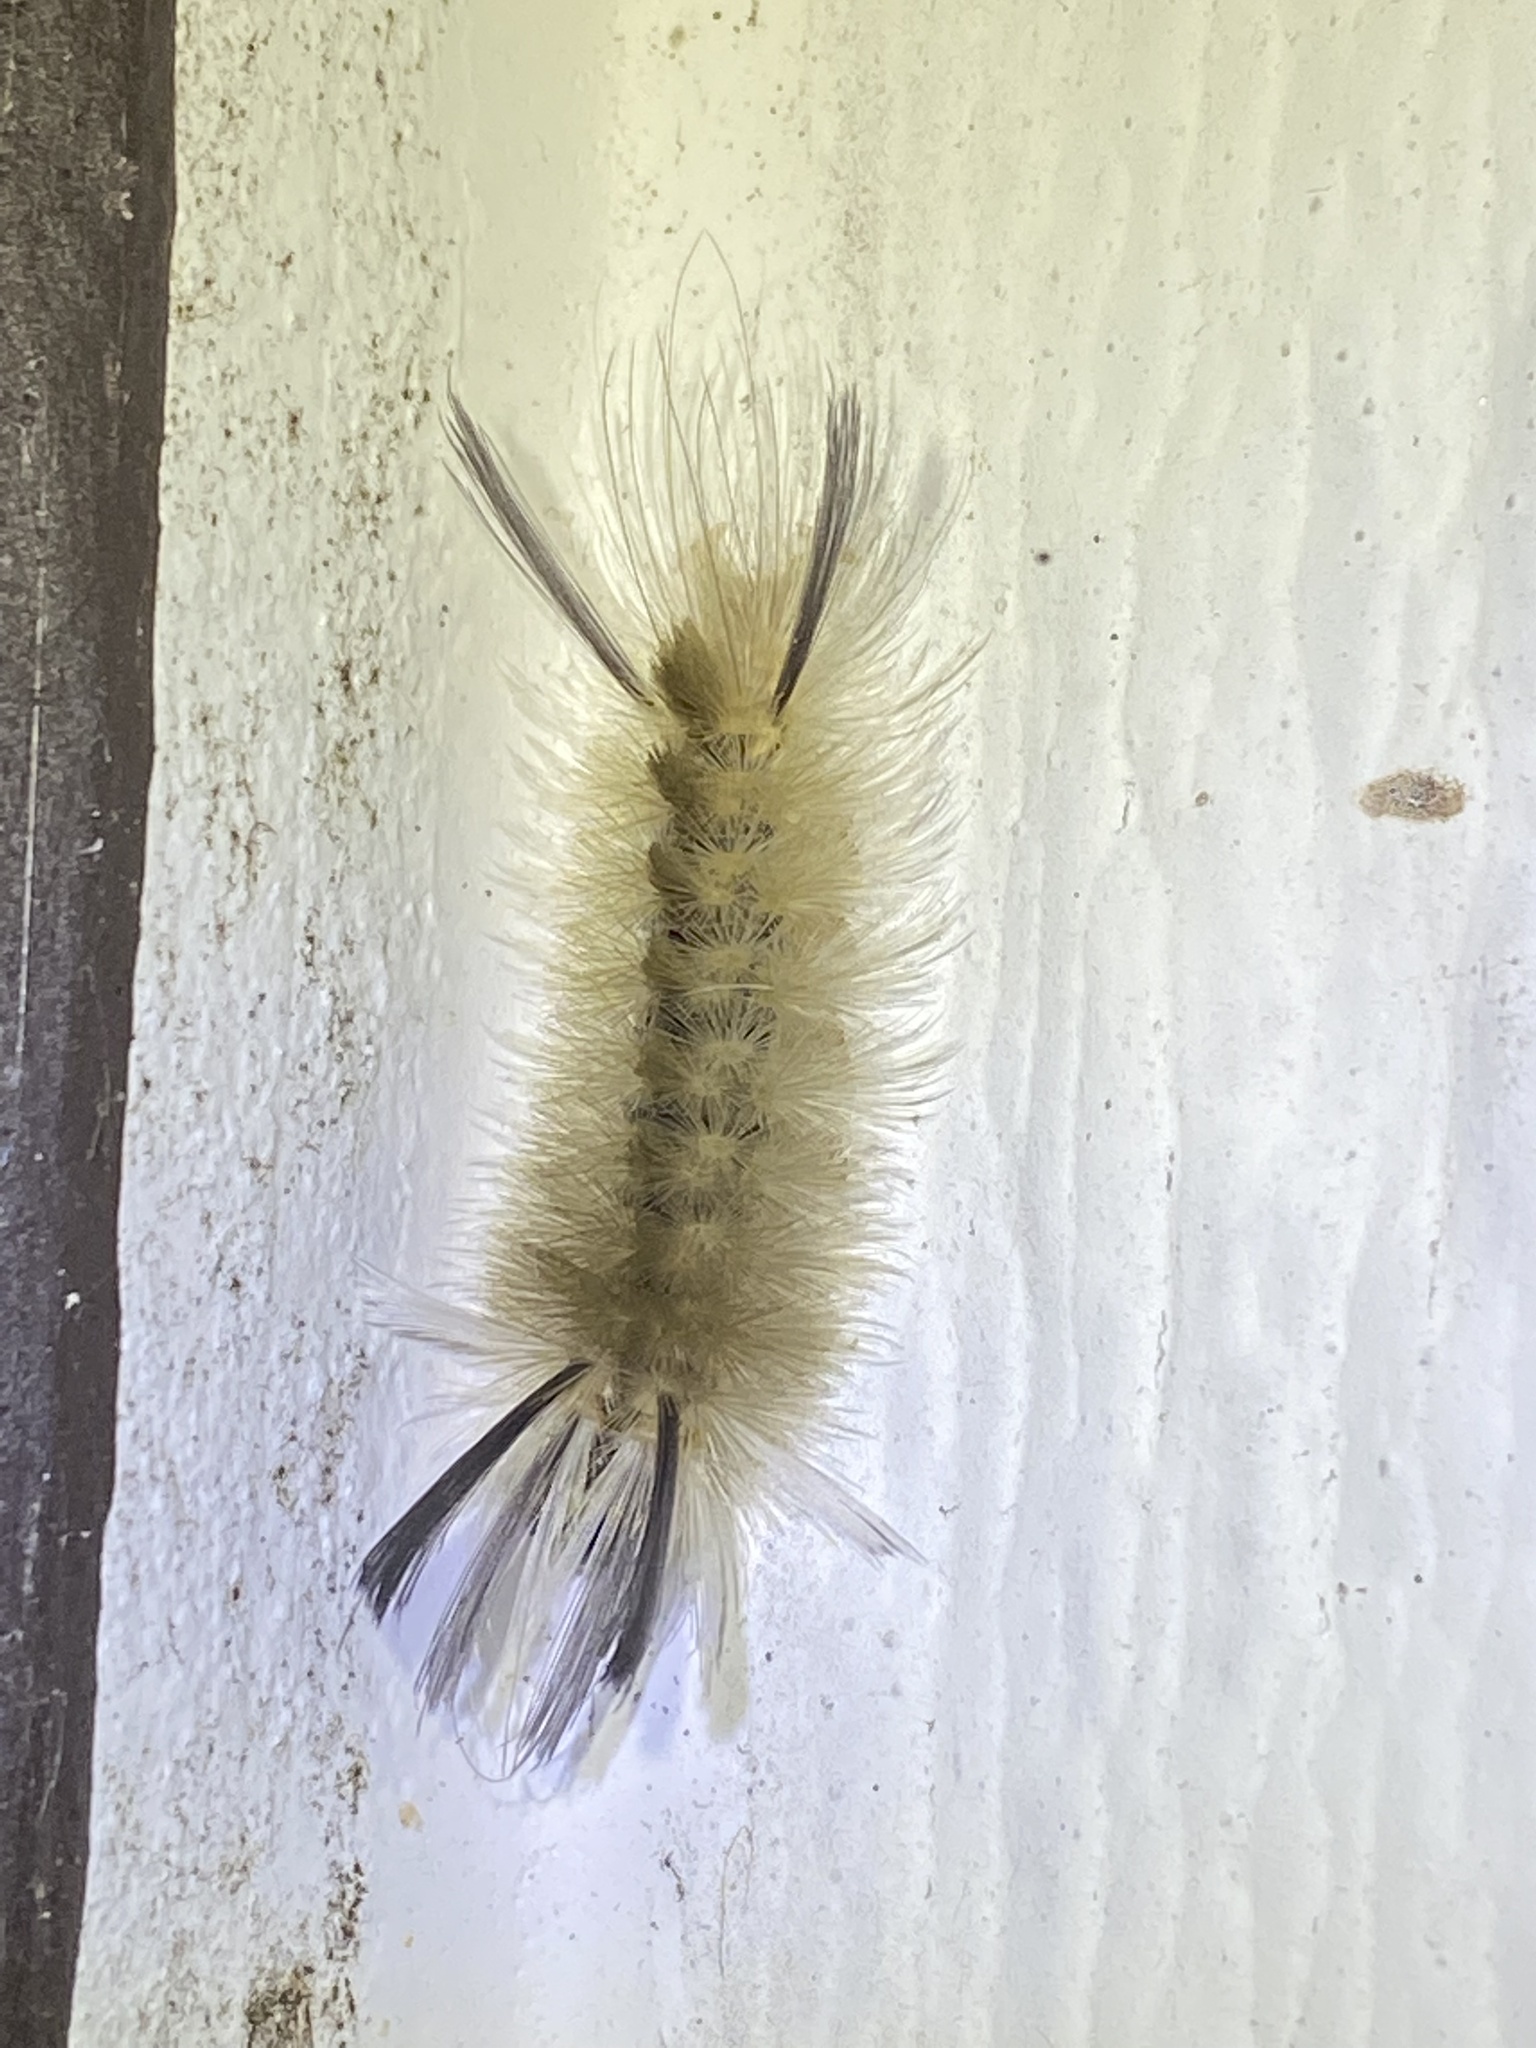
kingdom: Animalia
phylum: Arthropoda
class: Insecta
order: Lepidoptera
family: Erebidae
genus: Halysidota
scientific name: Halysidota tessellaris
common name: Banded tussock moth
